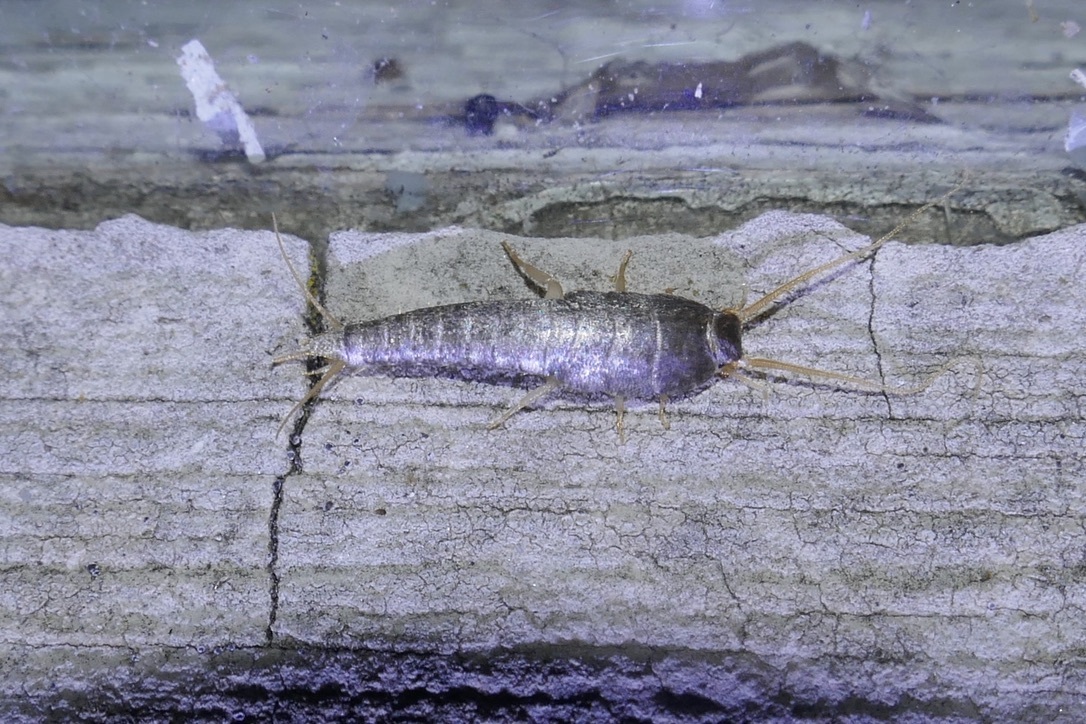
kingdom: Animalia
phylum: Arthropoda
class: Insecta
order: Zygentoma
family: Lepismatidae
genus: Lepisma
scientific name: Lepisma saccharinum
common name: Silverfish
